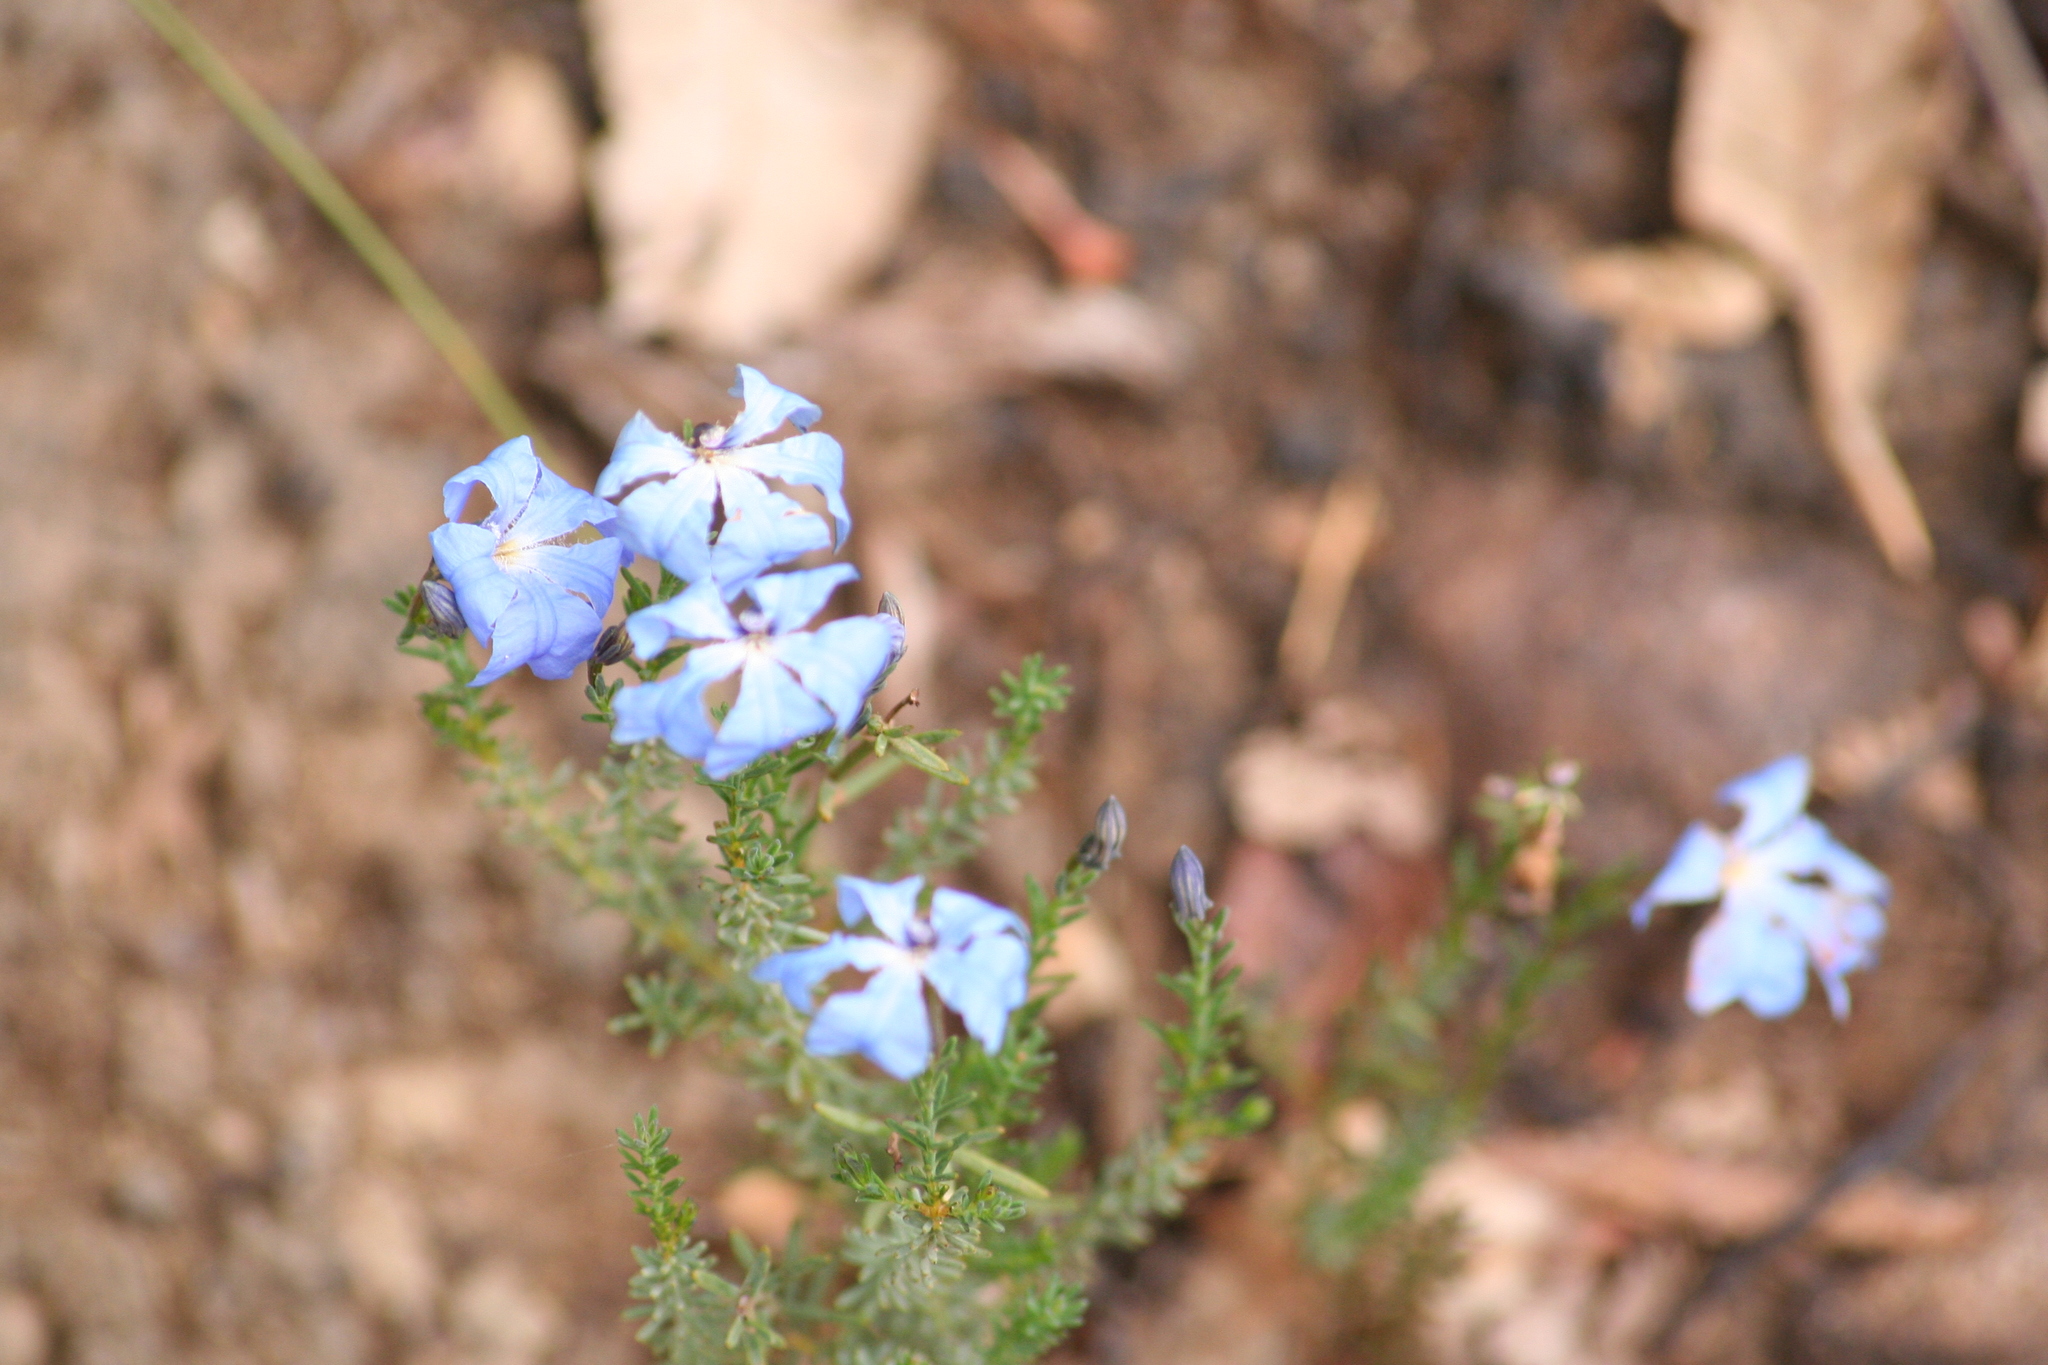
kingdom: Plantae
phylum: Tracheophyta
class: Magnoliopsida
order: Asterales
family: Goodeniaceae
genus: Lechenaultia
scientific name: Lechenaultia biloba
